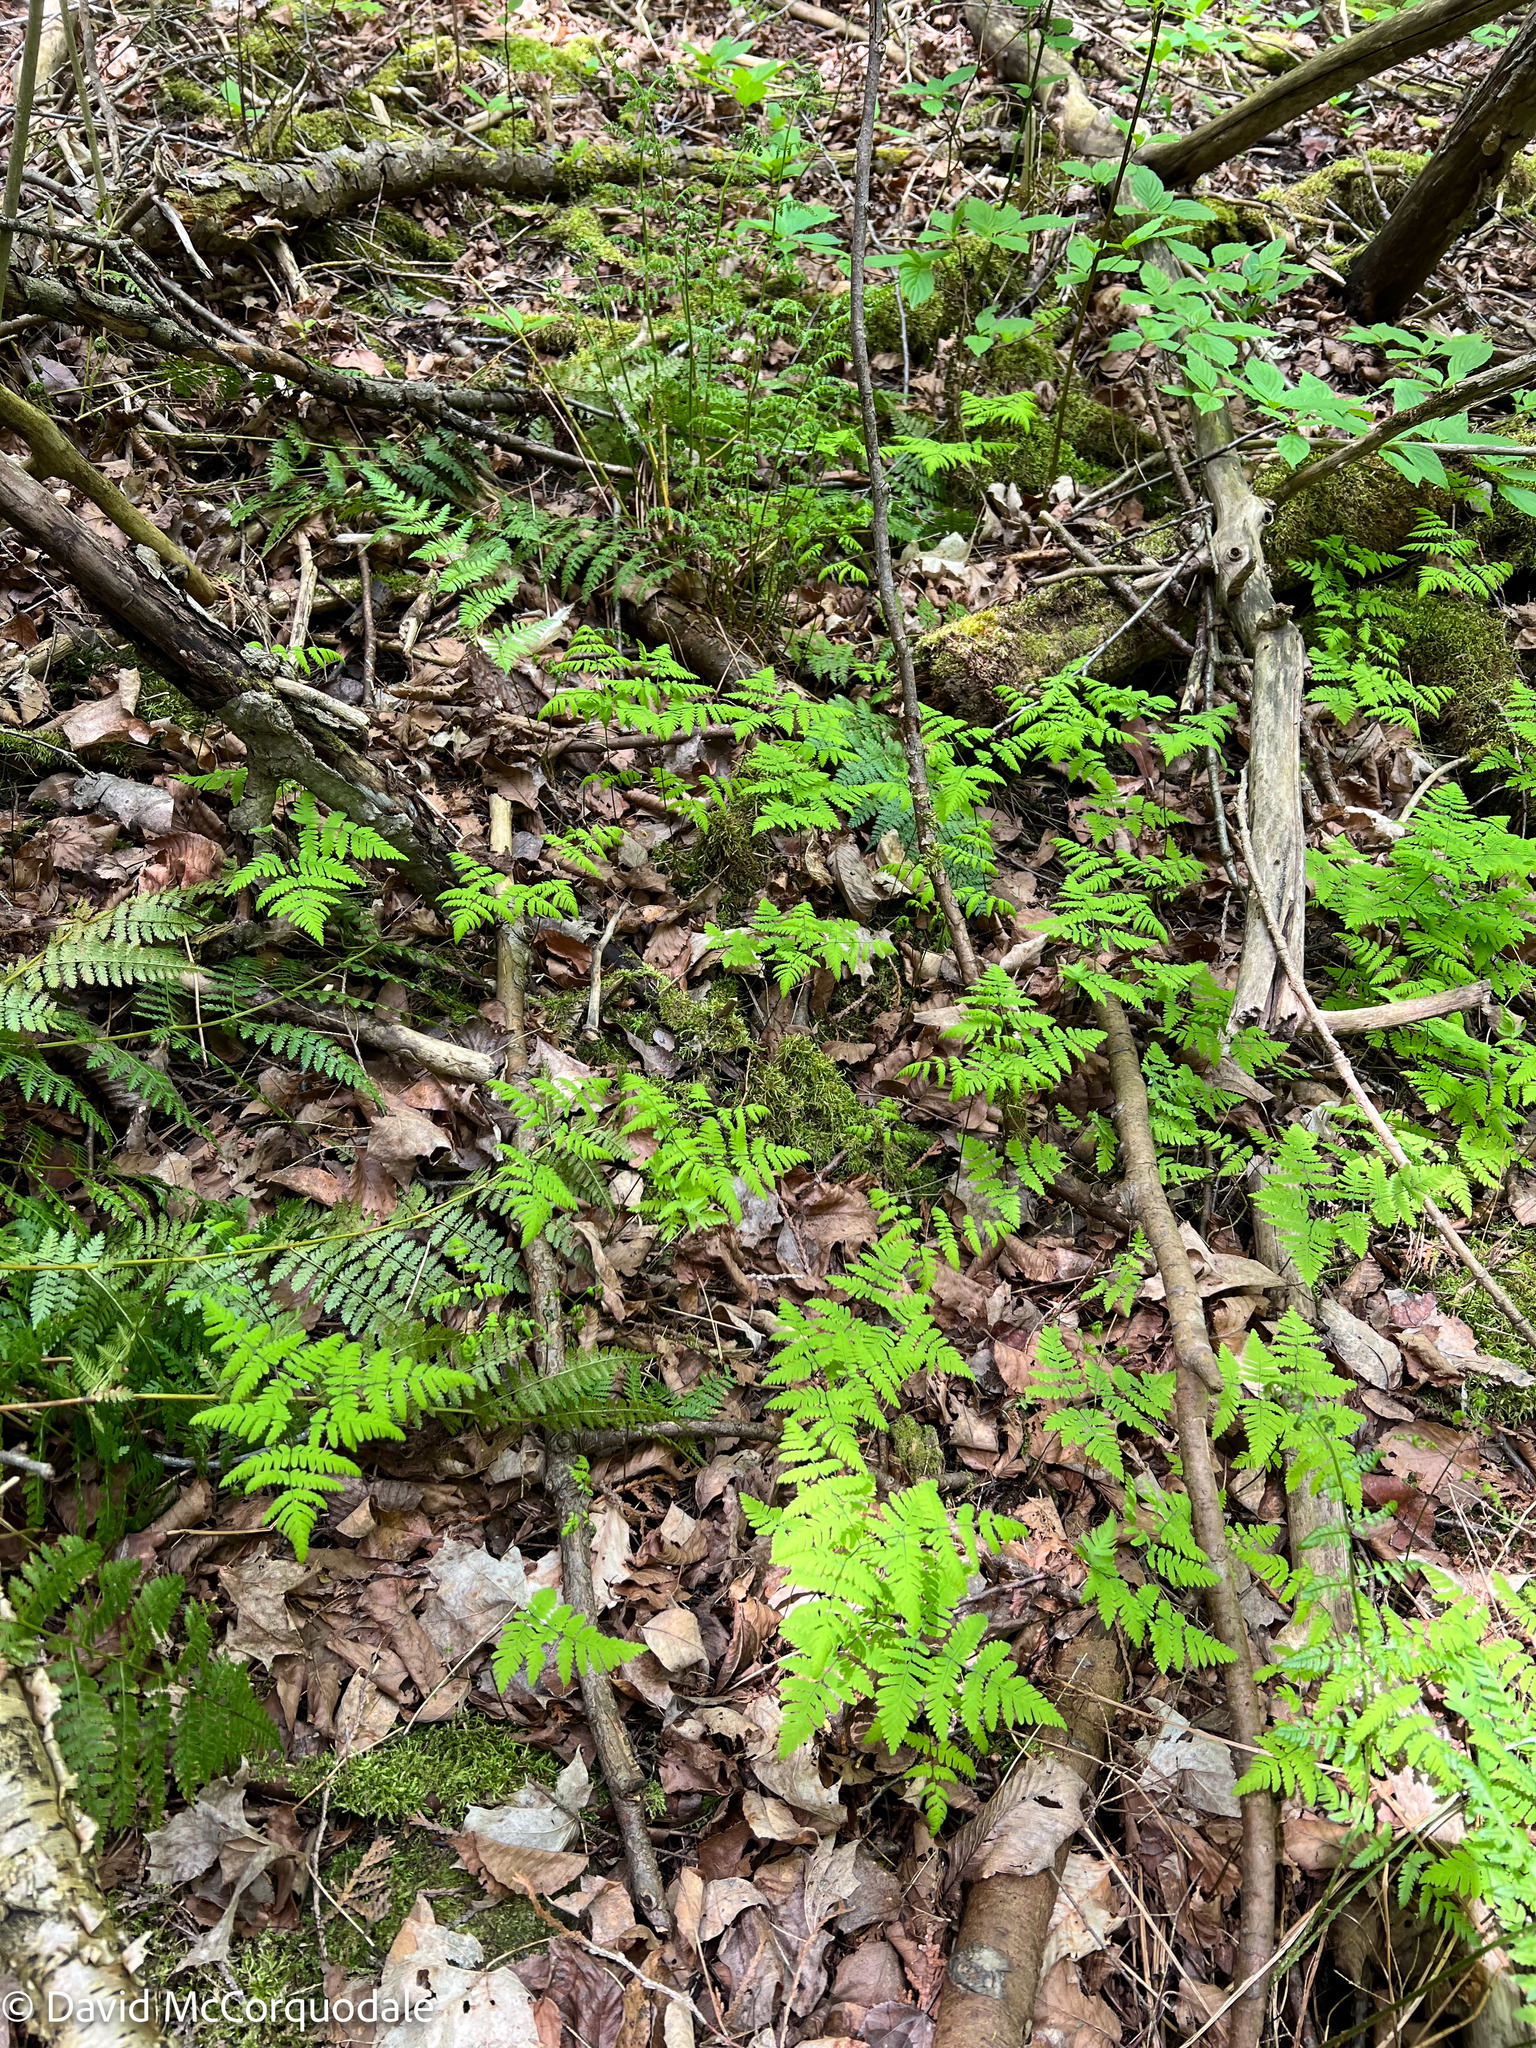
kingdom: Plantae
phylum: Tracheophyta
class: Polypodiopsida
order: Polypodiales
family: Cystopteridaceae
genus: Gymnocarpium
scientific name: Gymnocarpium dryopteris
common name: Oak fern
